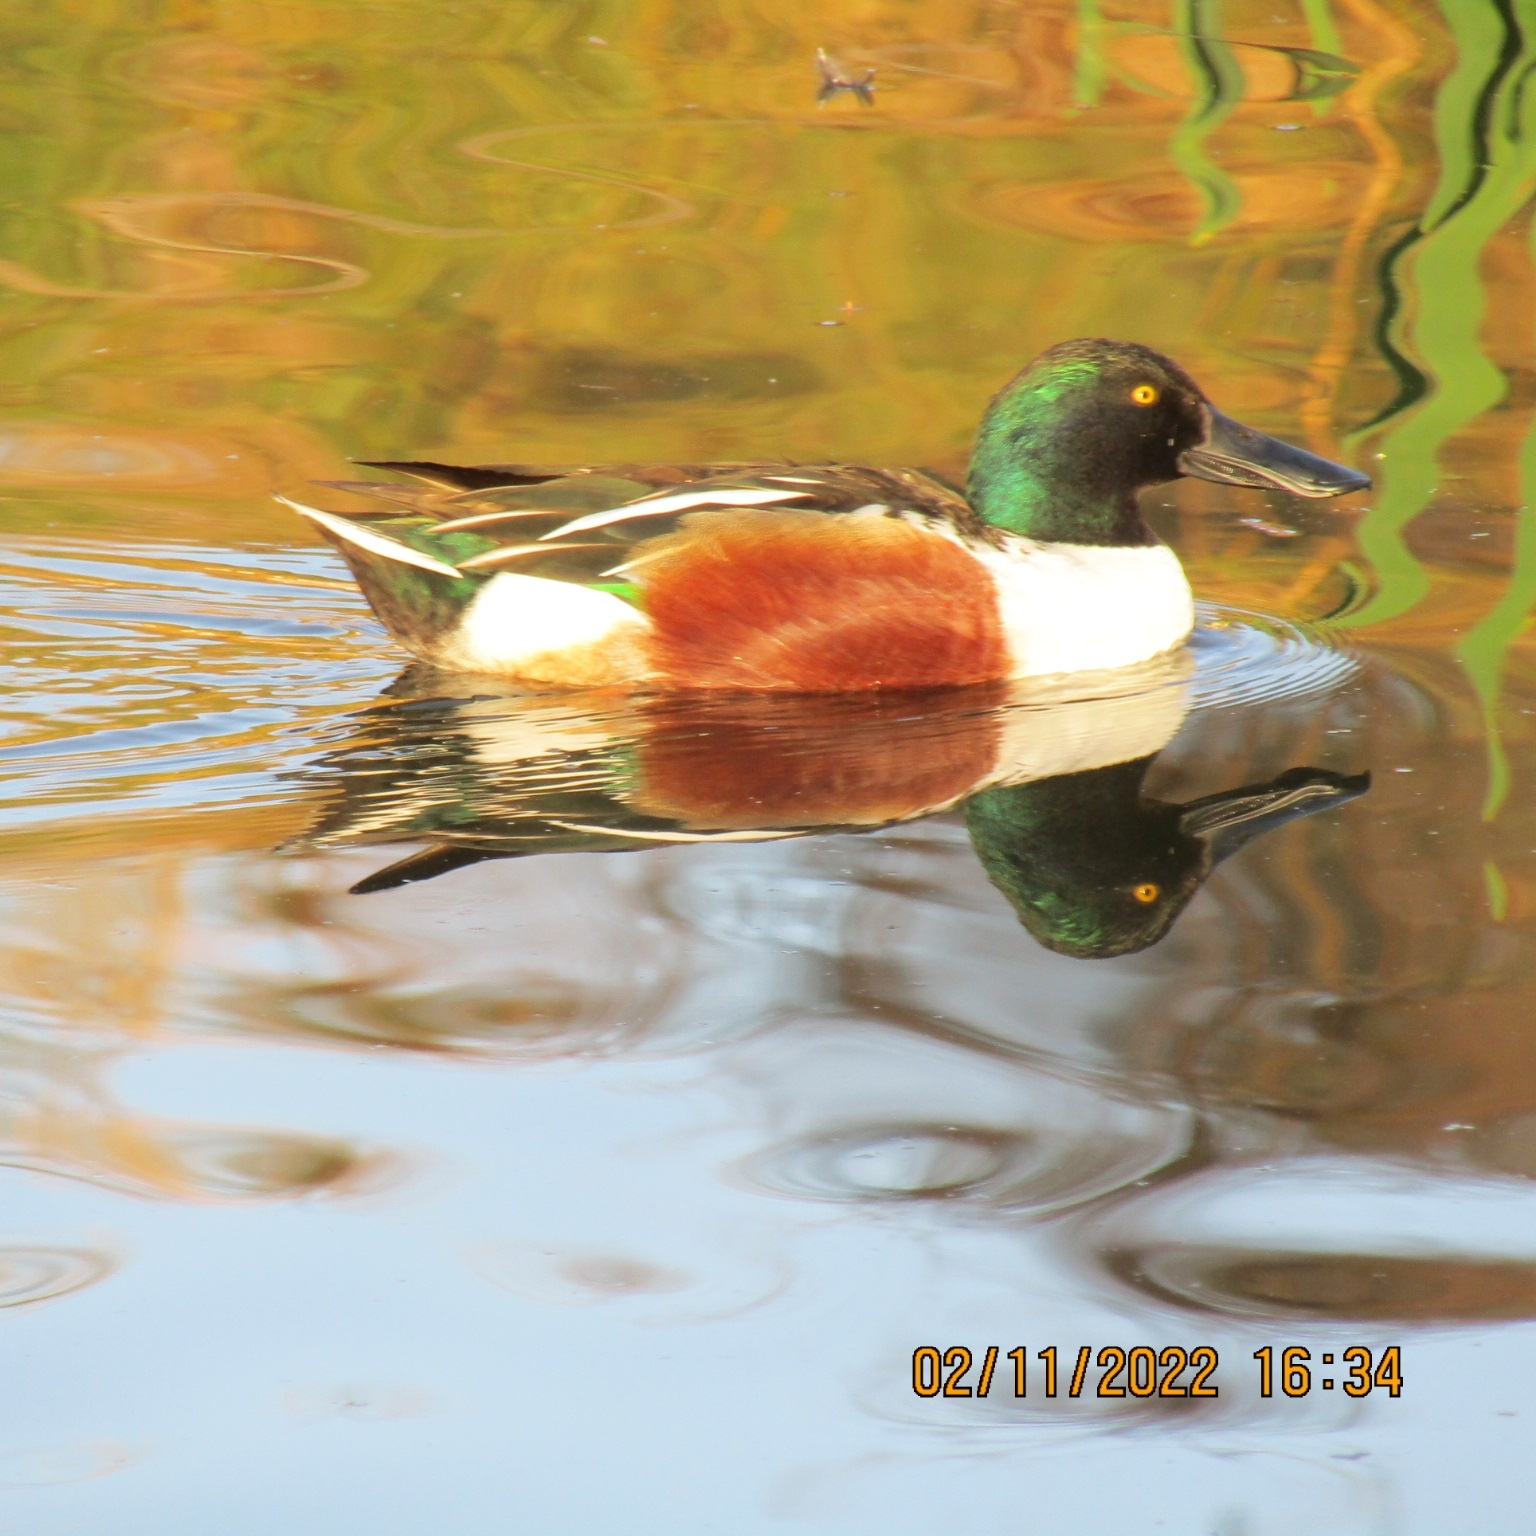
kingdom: Animalia
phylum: Chordata
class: Aves
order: Anseriformes
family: Anatidae
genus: Spatula
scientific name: Spatula clypeata
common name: Northern shoveler
